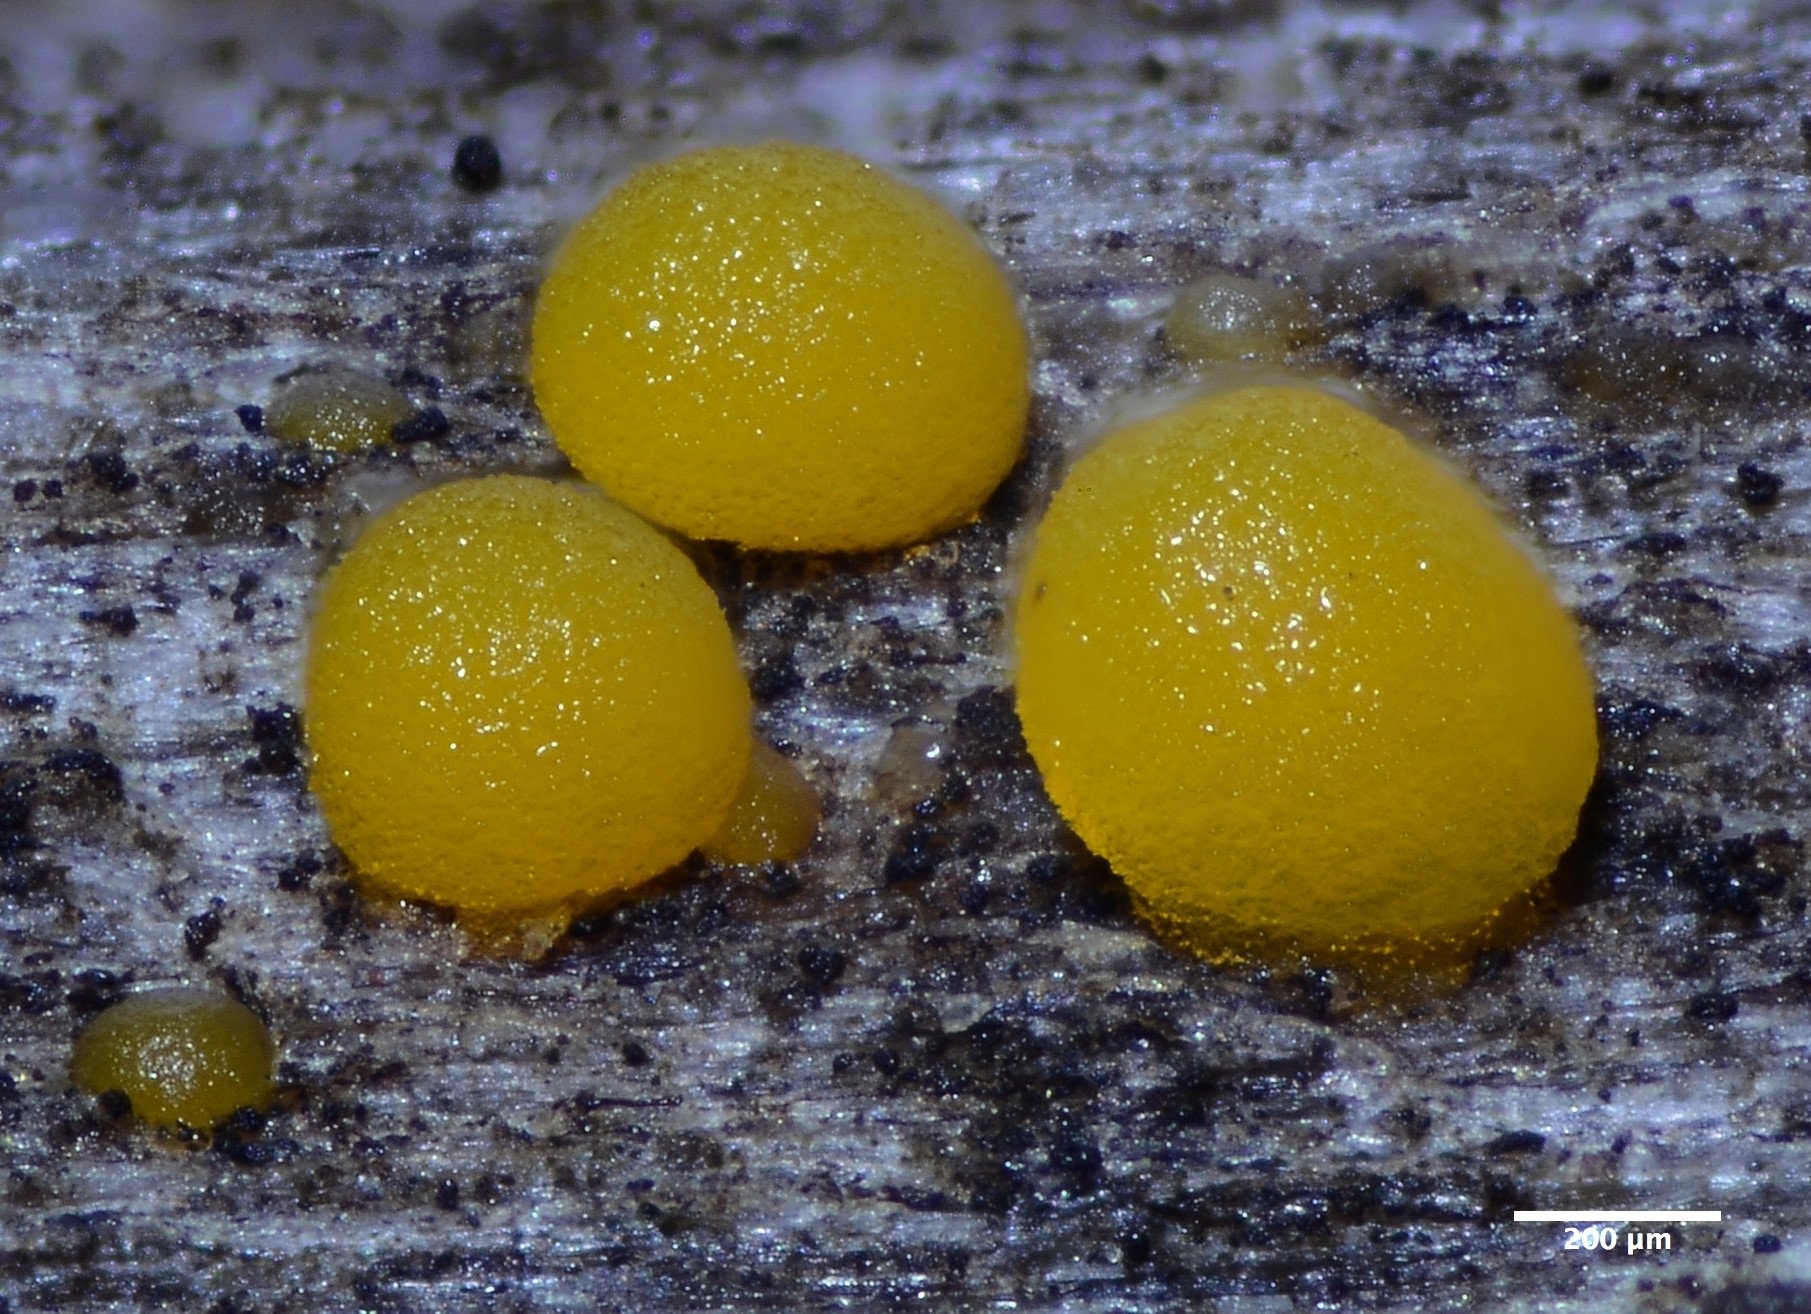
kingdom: Fungi
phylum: Ascomycota
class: Pezizomycetes
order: Pezizales
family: Pyronemataceae
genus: Sphaerosporium
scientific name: Sphaerosporium lignatile
